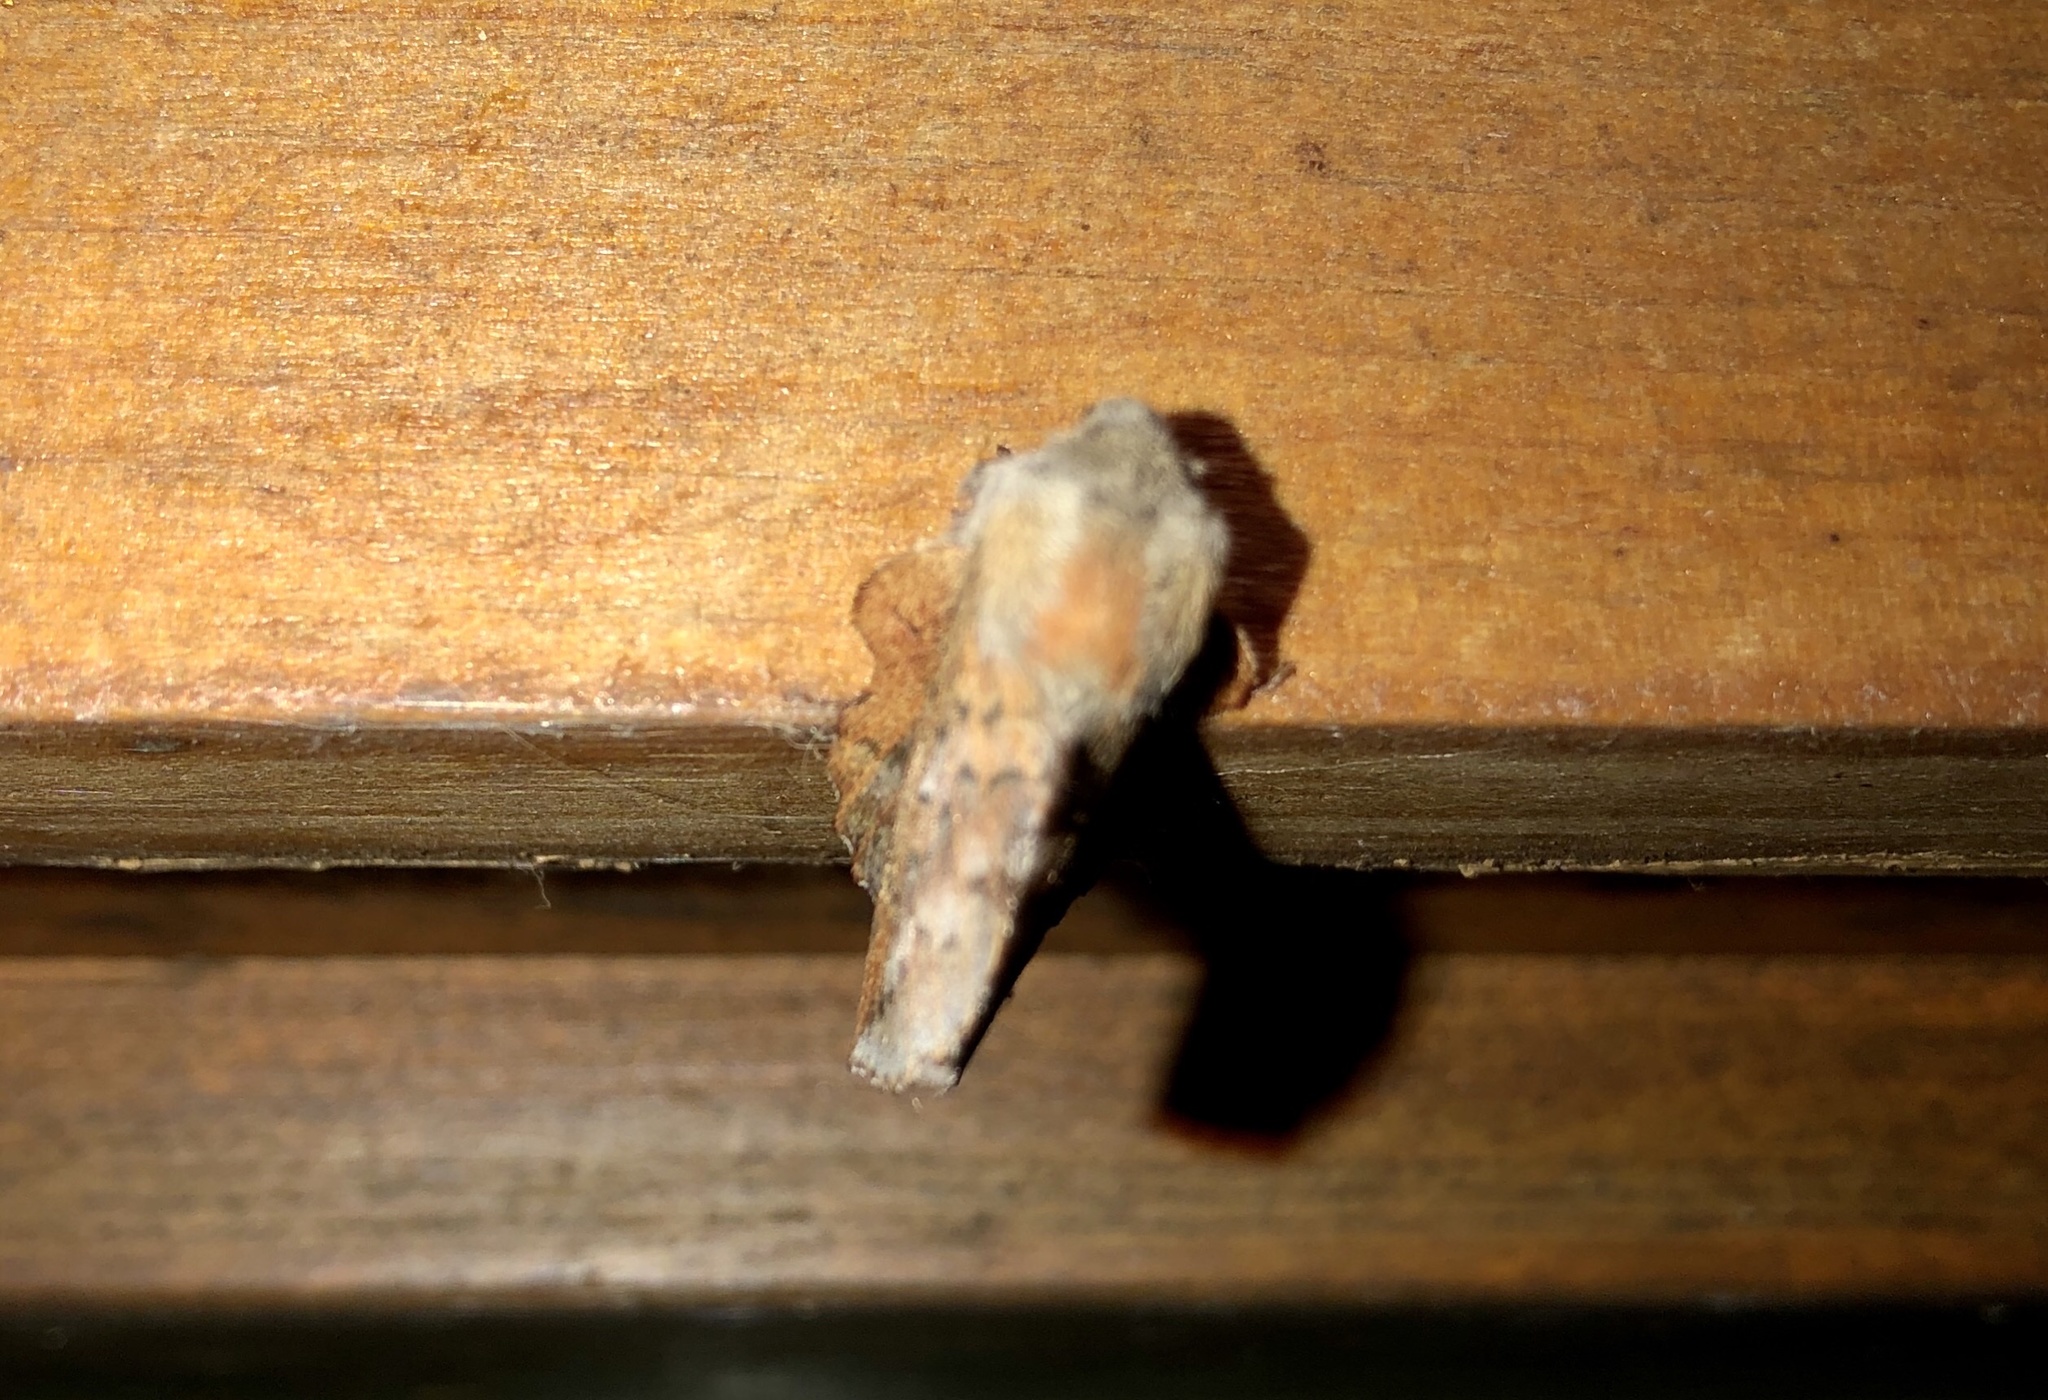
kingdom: Animalia
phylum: Arthropoda
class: Insecta
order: Lepidoptera
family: Lasiocampidae
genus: Phyllodesma
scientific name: Phyllodesma americana
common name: American lappet moth
